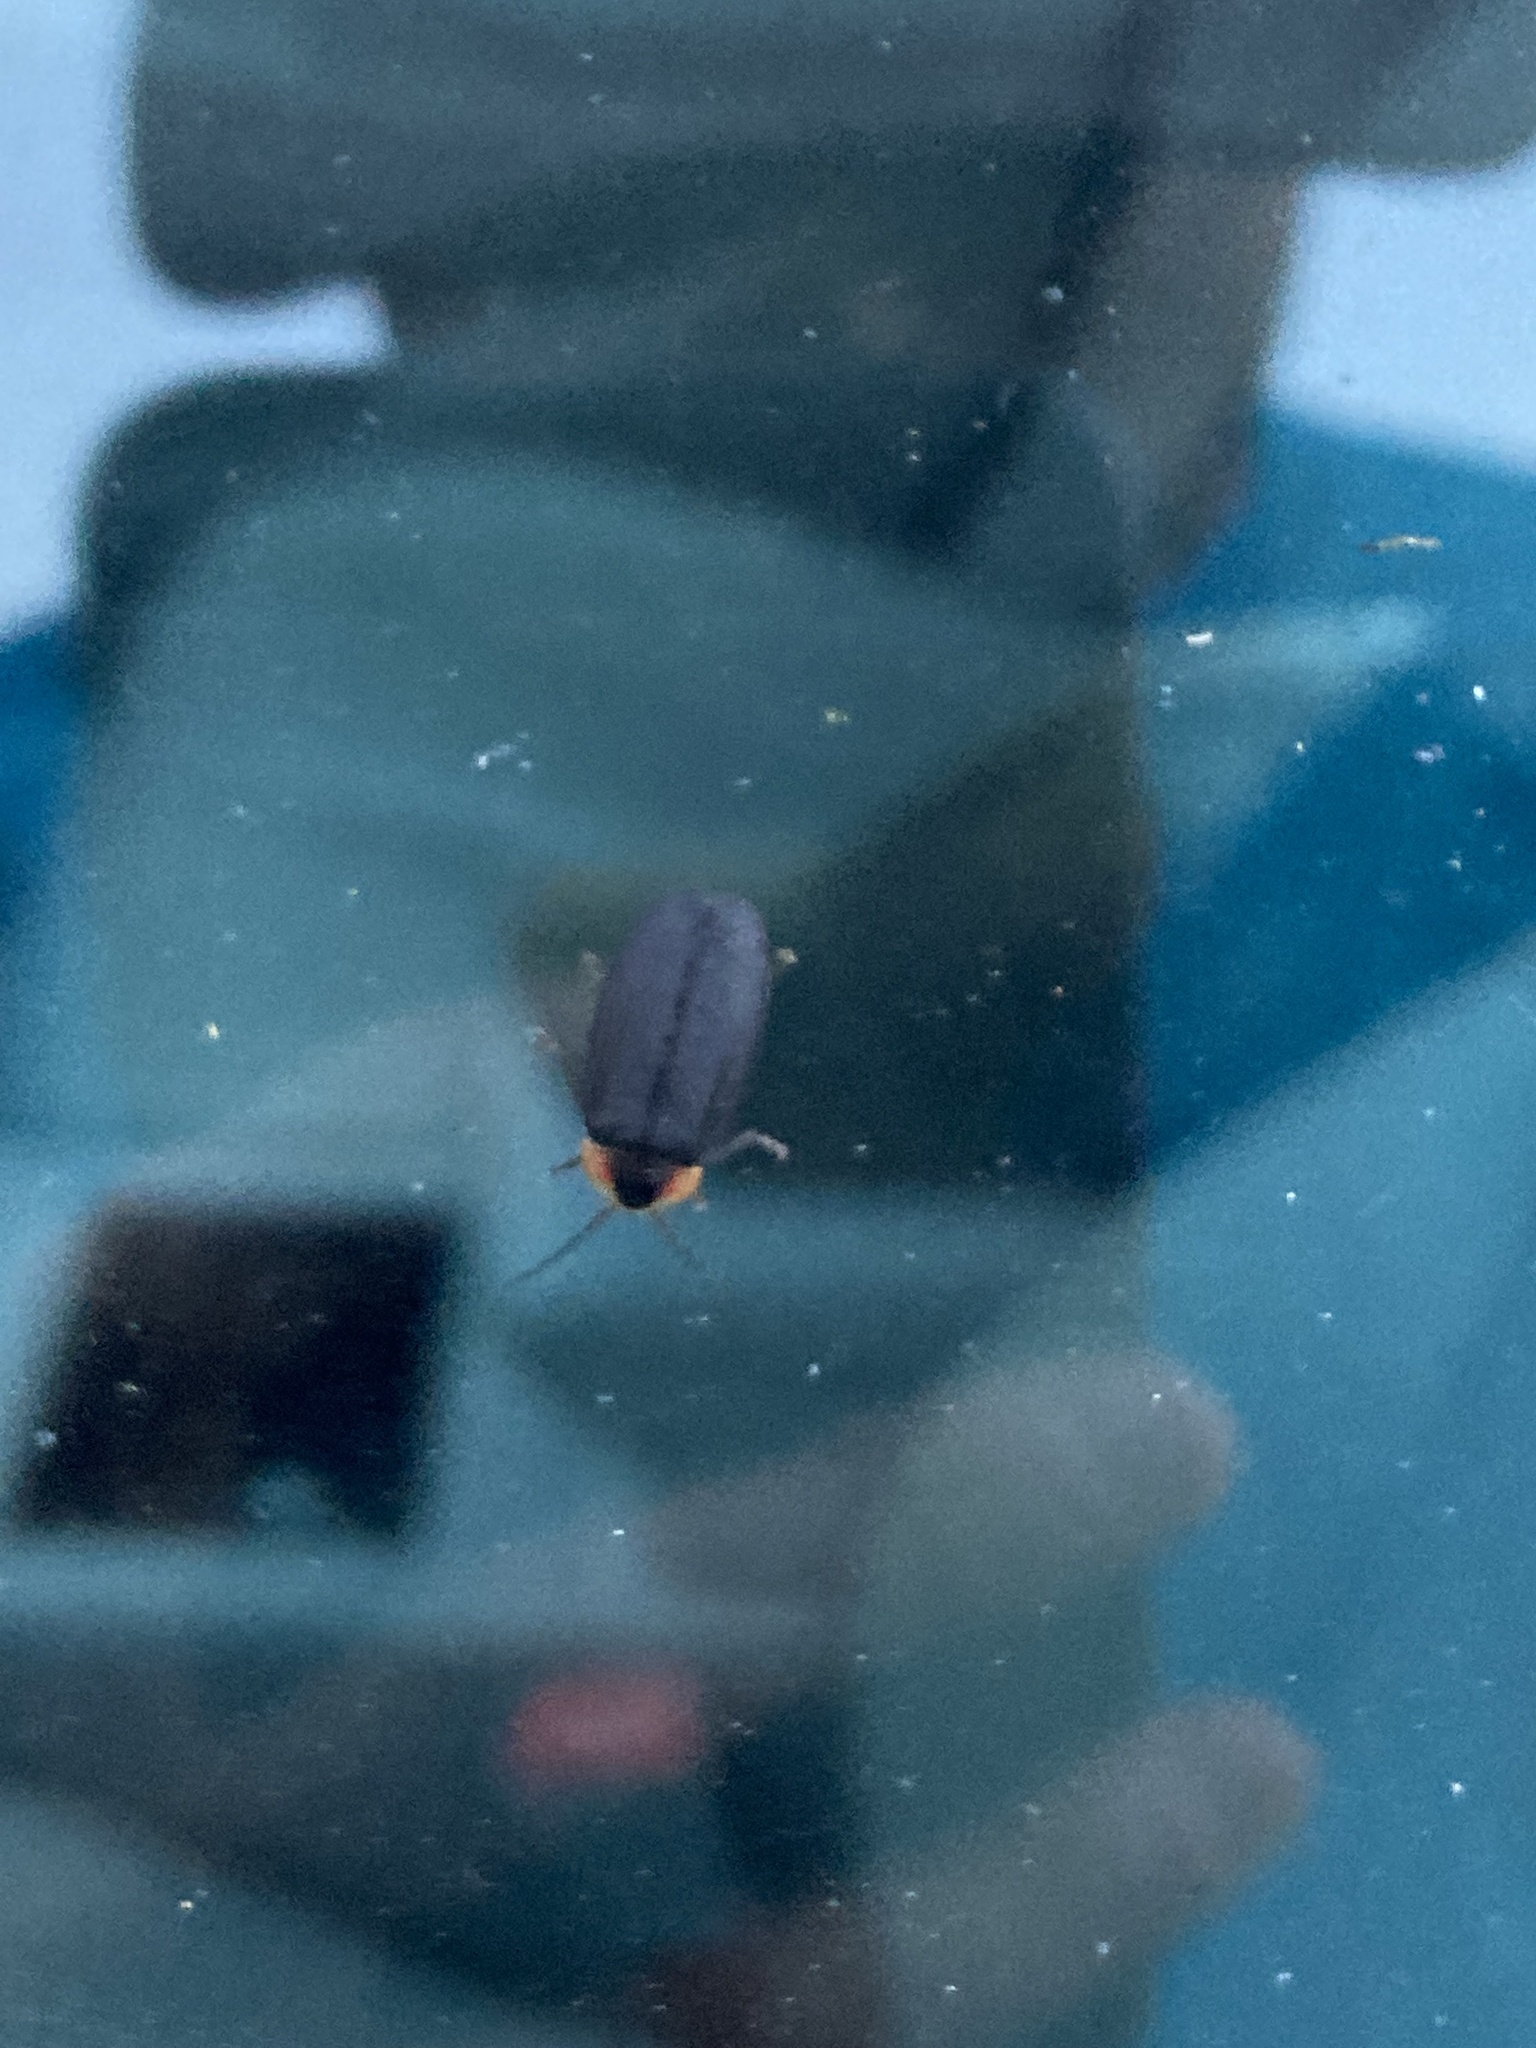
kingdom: Animalia
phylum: Arthropoda
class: Insecta
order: Coleoptera
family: Lampyridae
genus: Lucidota
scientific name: Lucidota atra
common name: Black firefly
